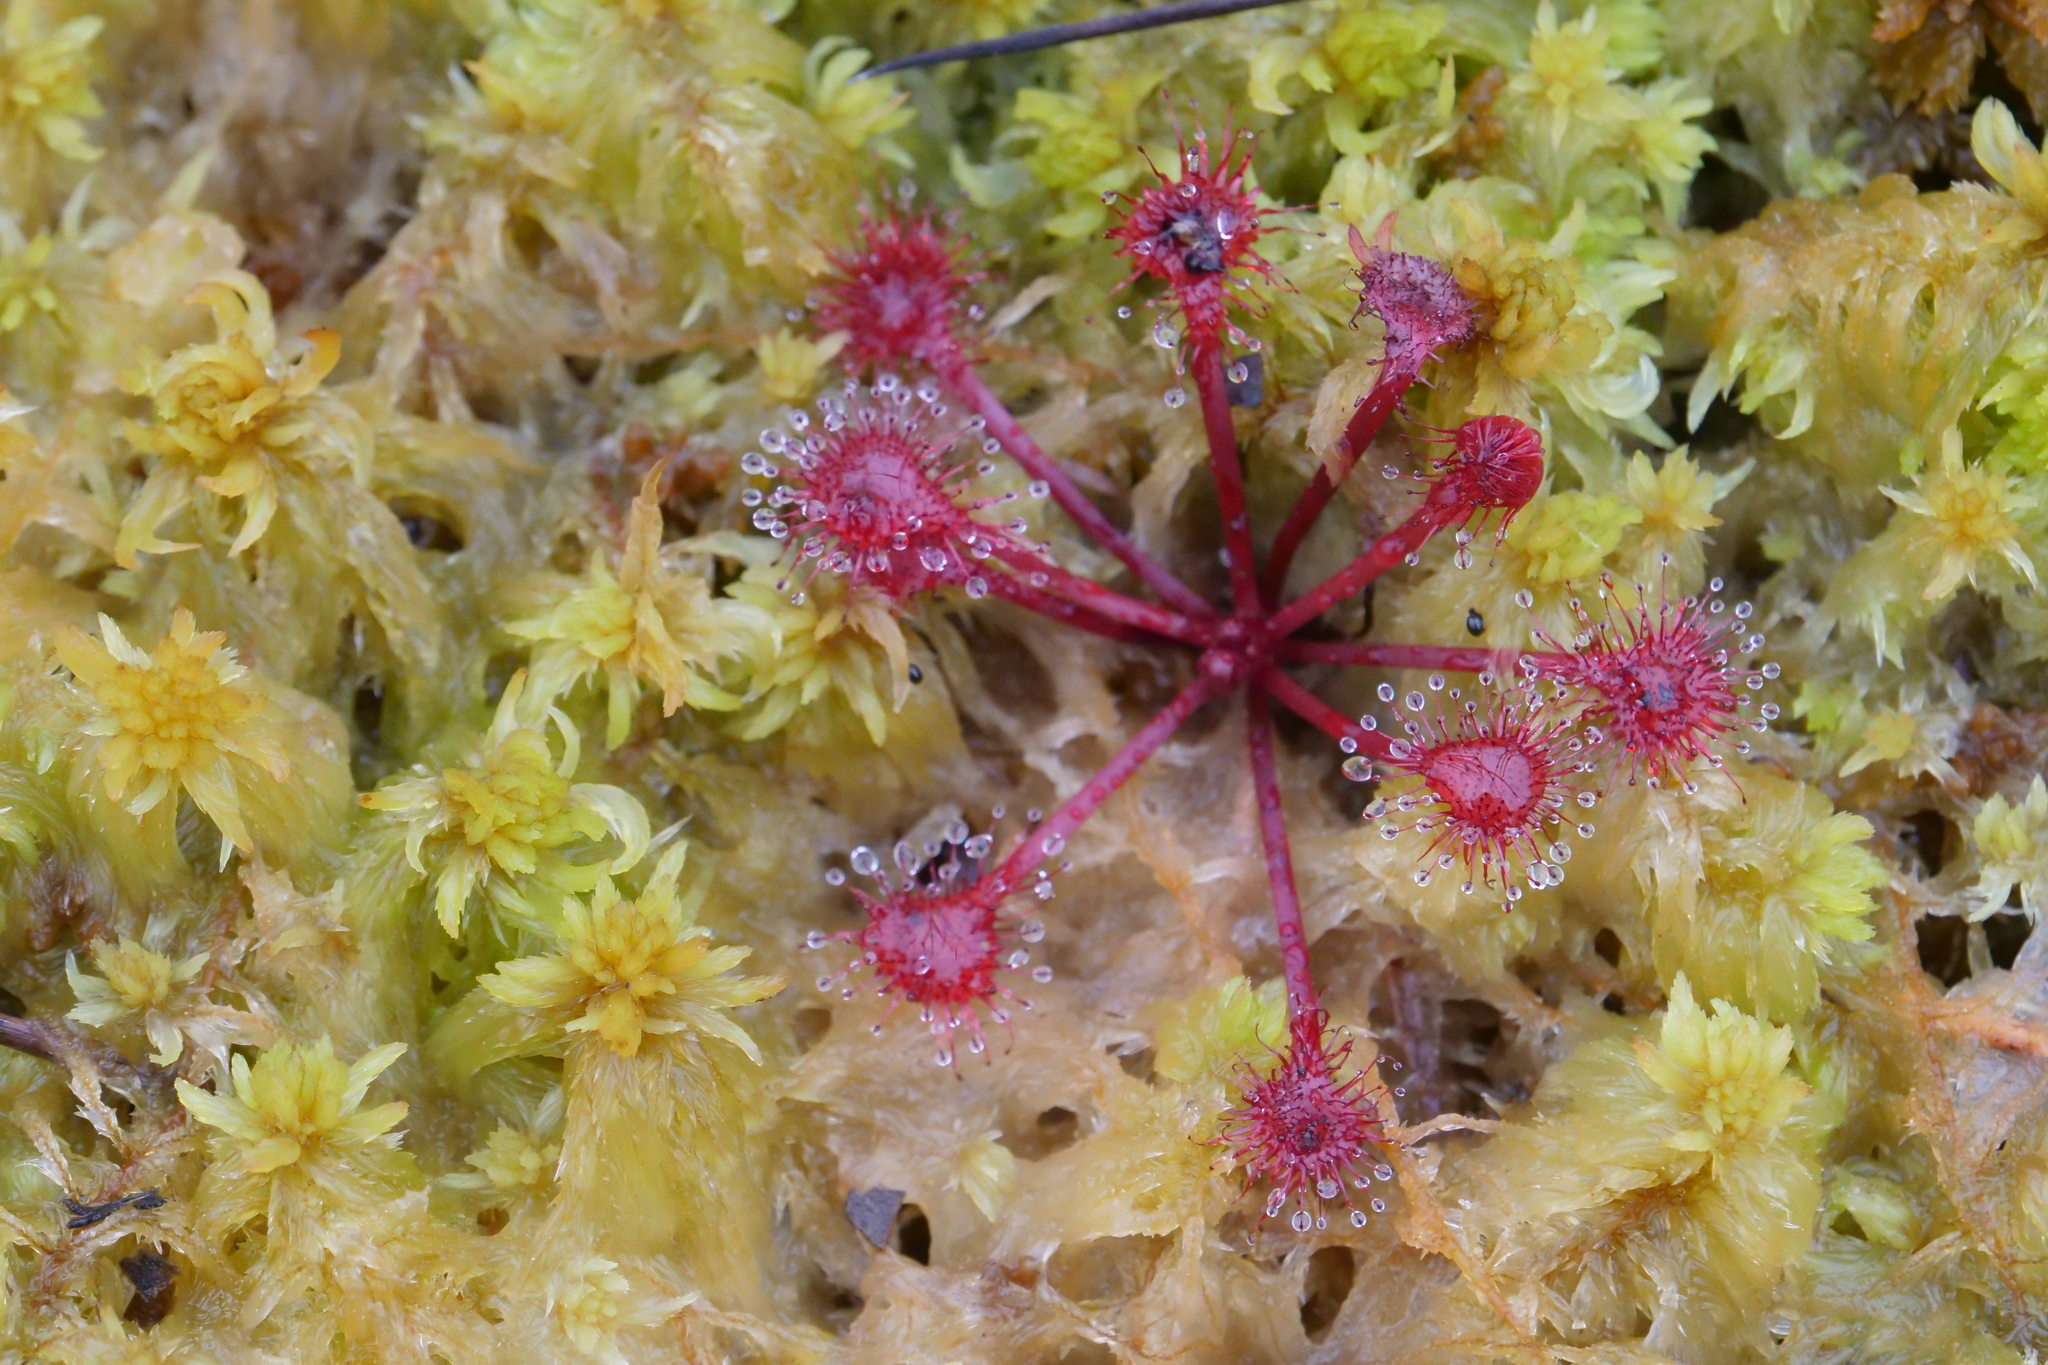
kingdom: Plantae
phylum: Tracheophyta
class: Magnoliopsida
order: Caryophyllales
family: Droseraceae
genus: Drosera
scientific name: Drosera spatulata
